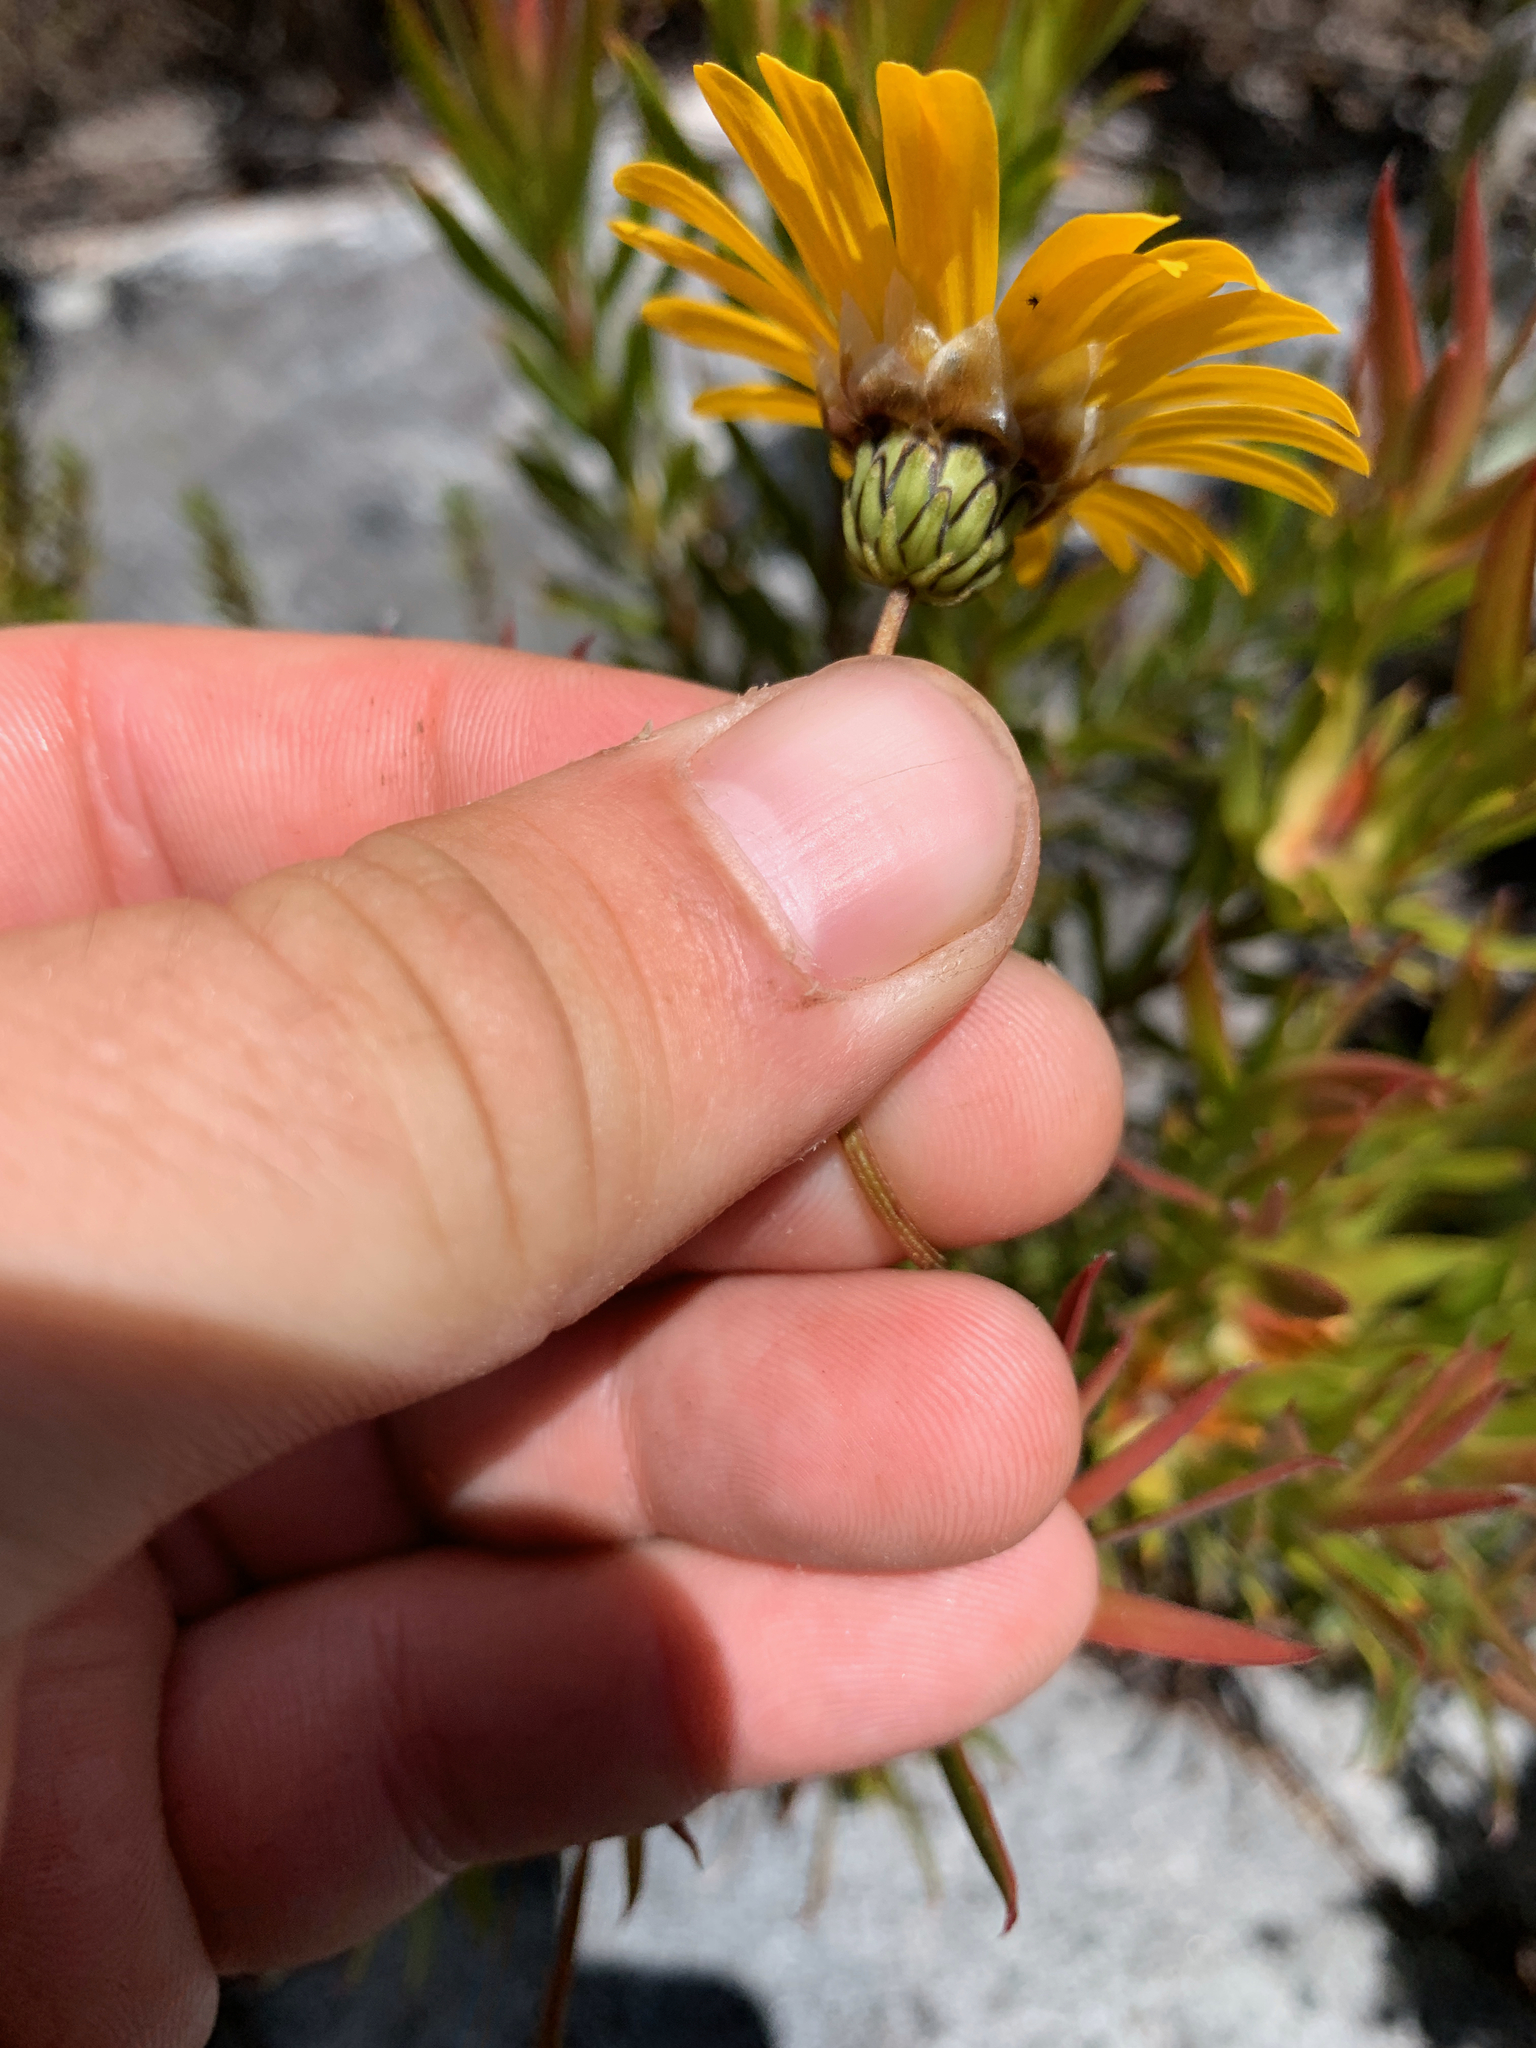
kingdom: Plantae
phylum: Tracheophyta
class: Magnoliopsida
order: Asterales
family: Asteraceae
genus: Ursinia
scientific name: Ursinia paleacea
